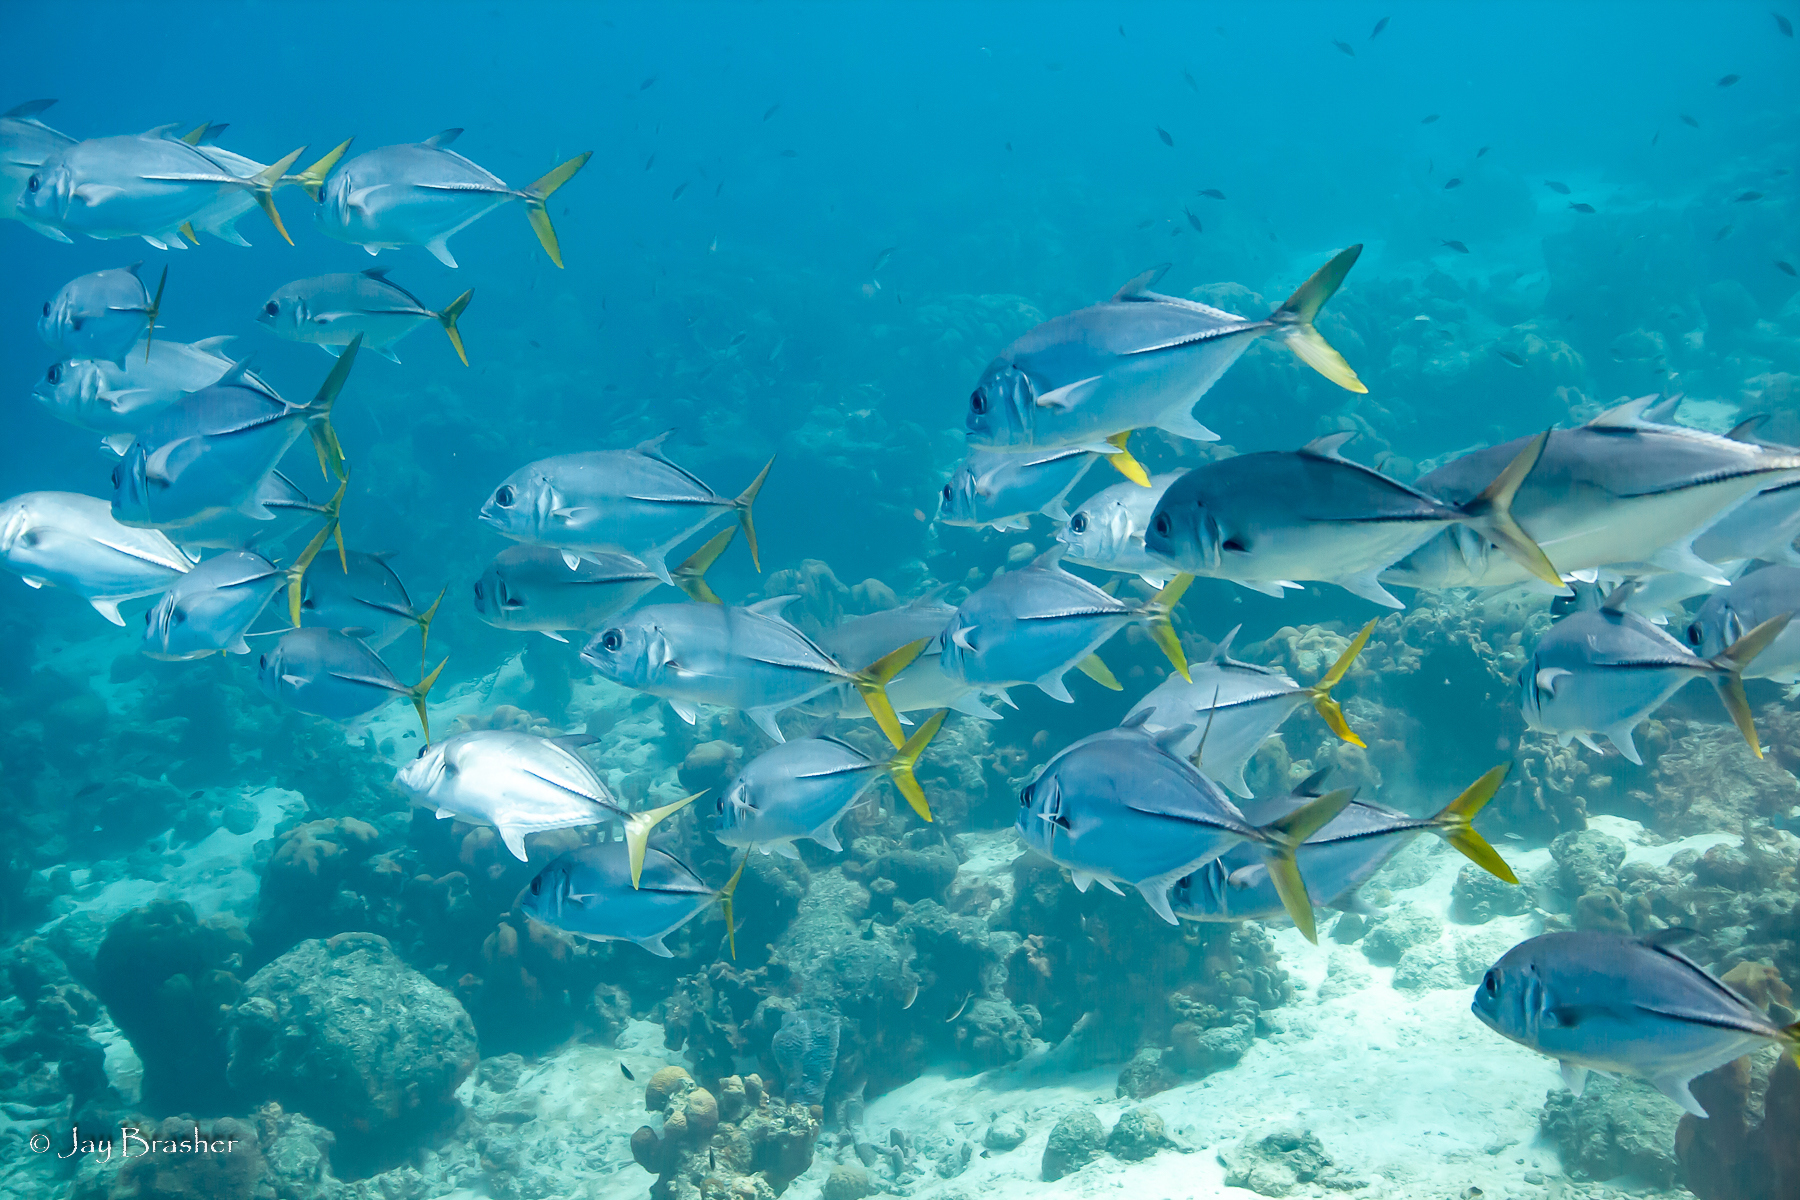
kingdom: Animalia
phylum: Chordata
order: Perciformes
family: Carangidae
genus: Caranx
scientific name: Caranx latus
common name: Horse eye jack
